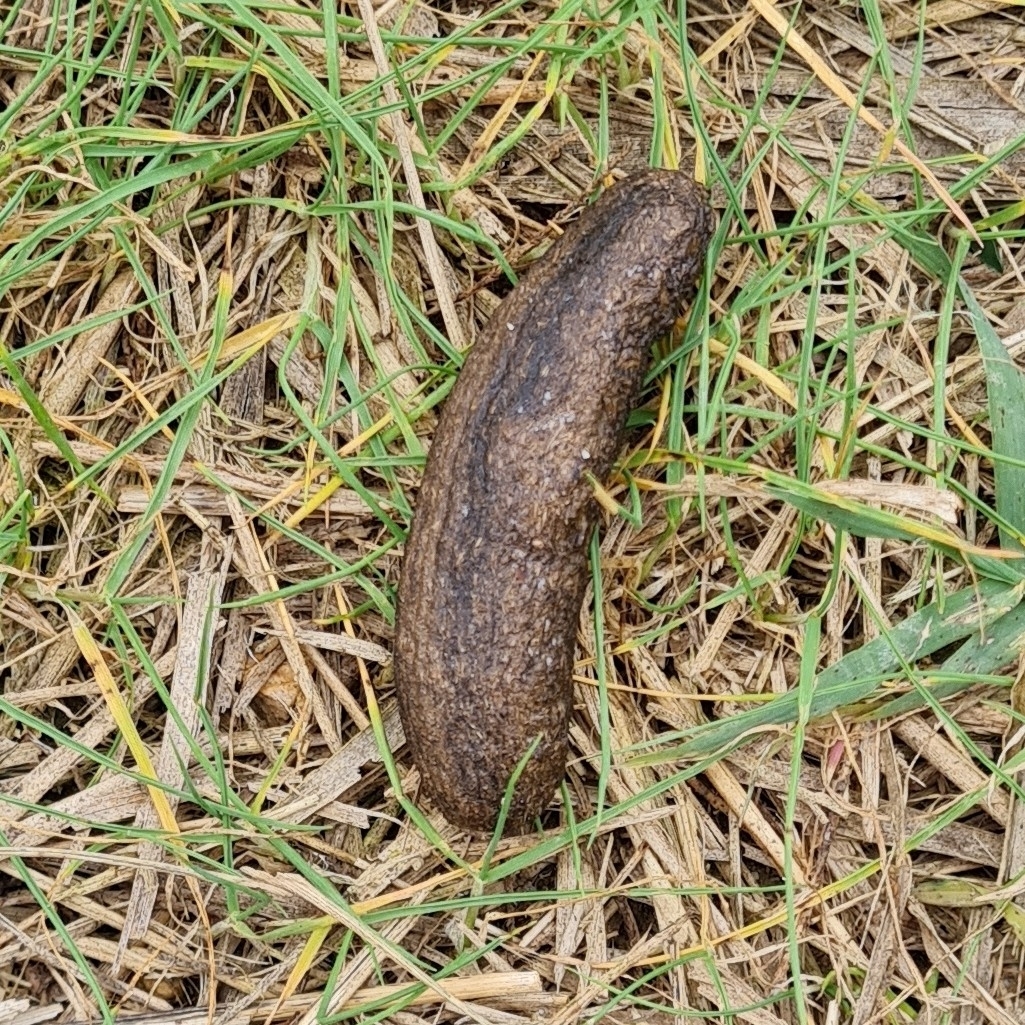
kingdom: Animalia
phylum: Chordata
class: Mammalia
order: Rodentia
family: Myocastoridae
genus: Myocastor
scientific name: Myocastor coypus
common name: Coypu
